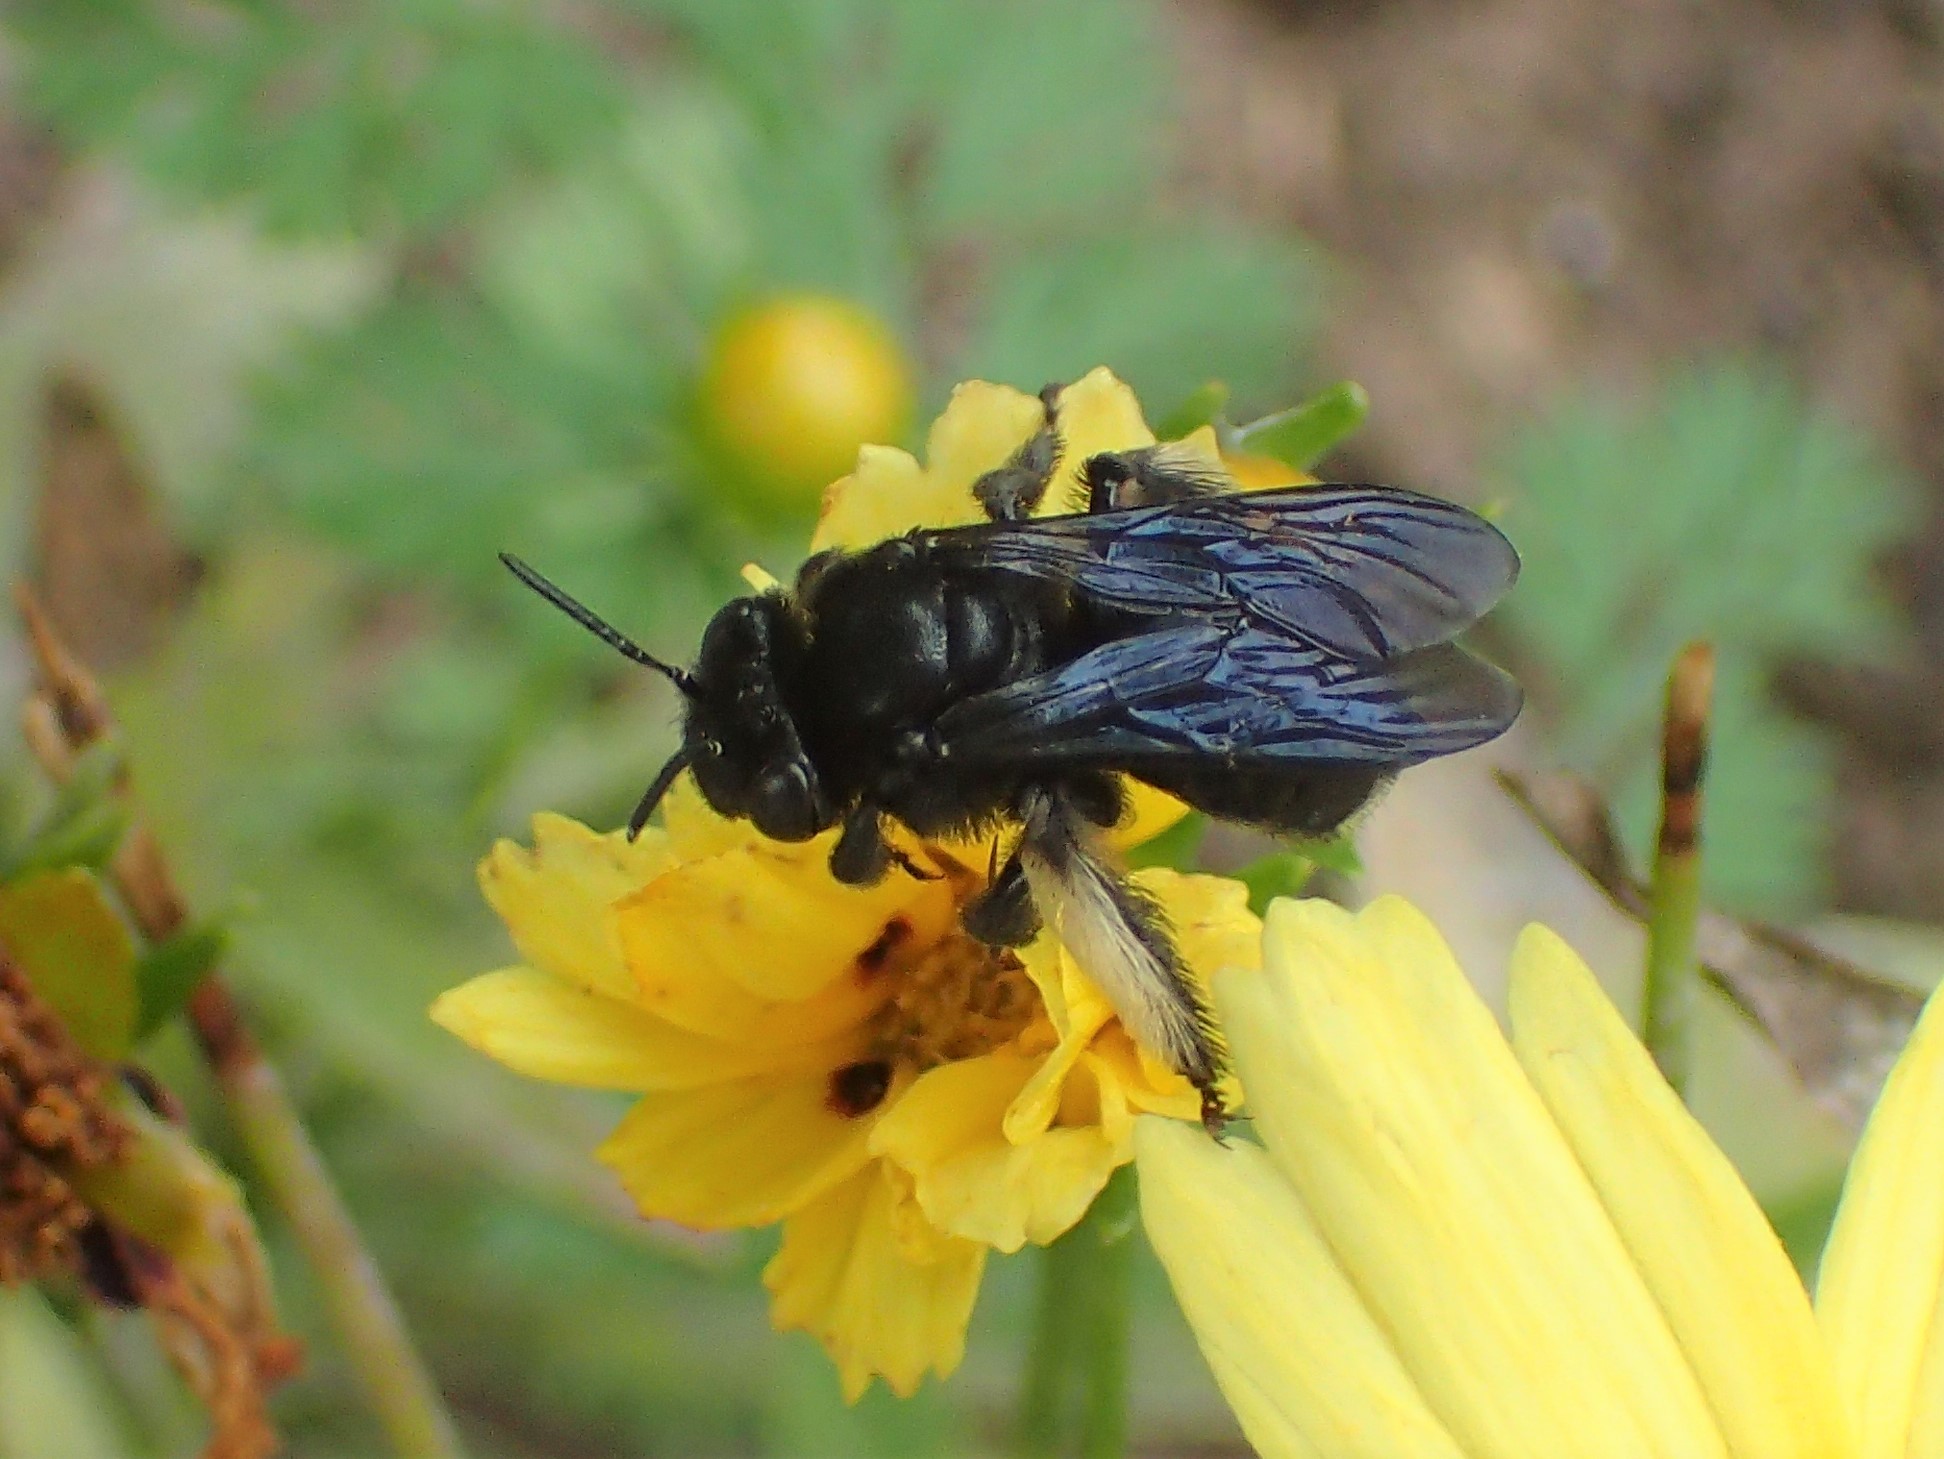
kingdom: Animalia
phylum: Arthropoda
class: Insecta
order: Hymenoptera
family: Apidae
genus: Melissodes
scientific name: Melissodes bimaculatus
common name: Two-spotted long-horned bee
